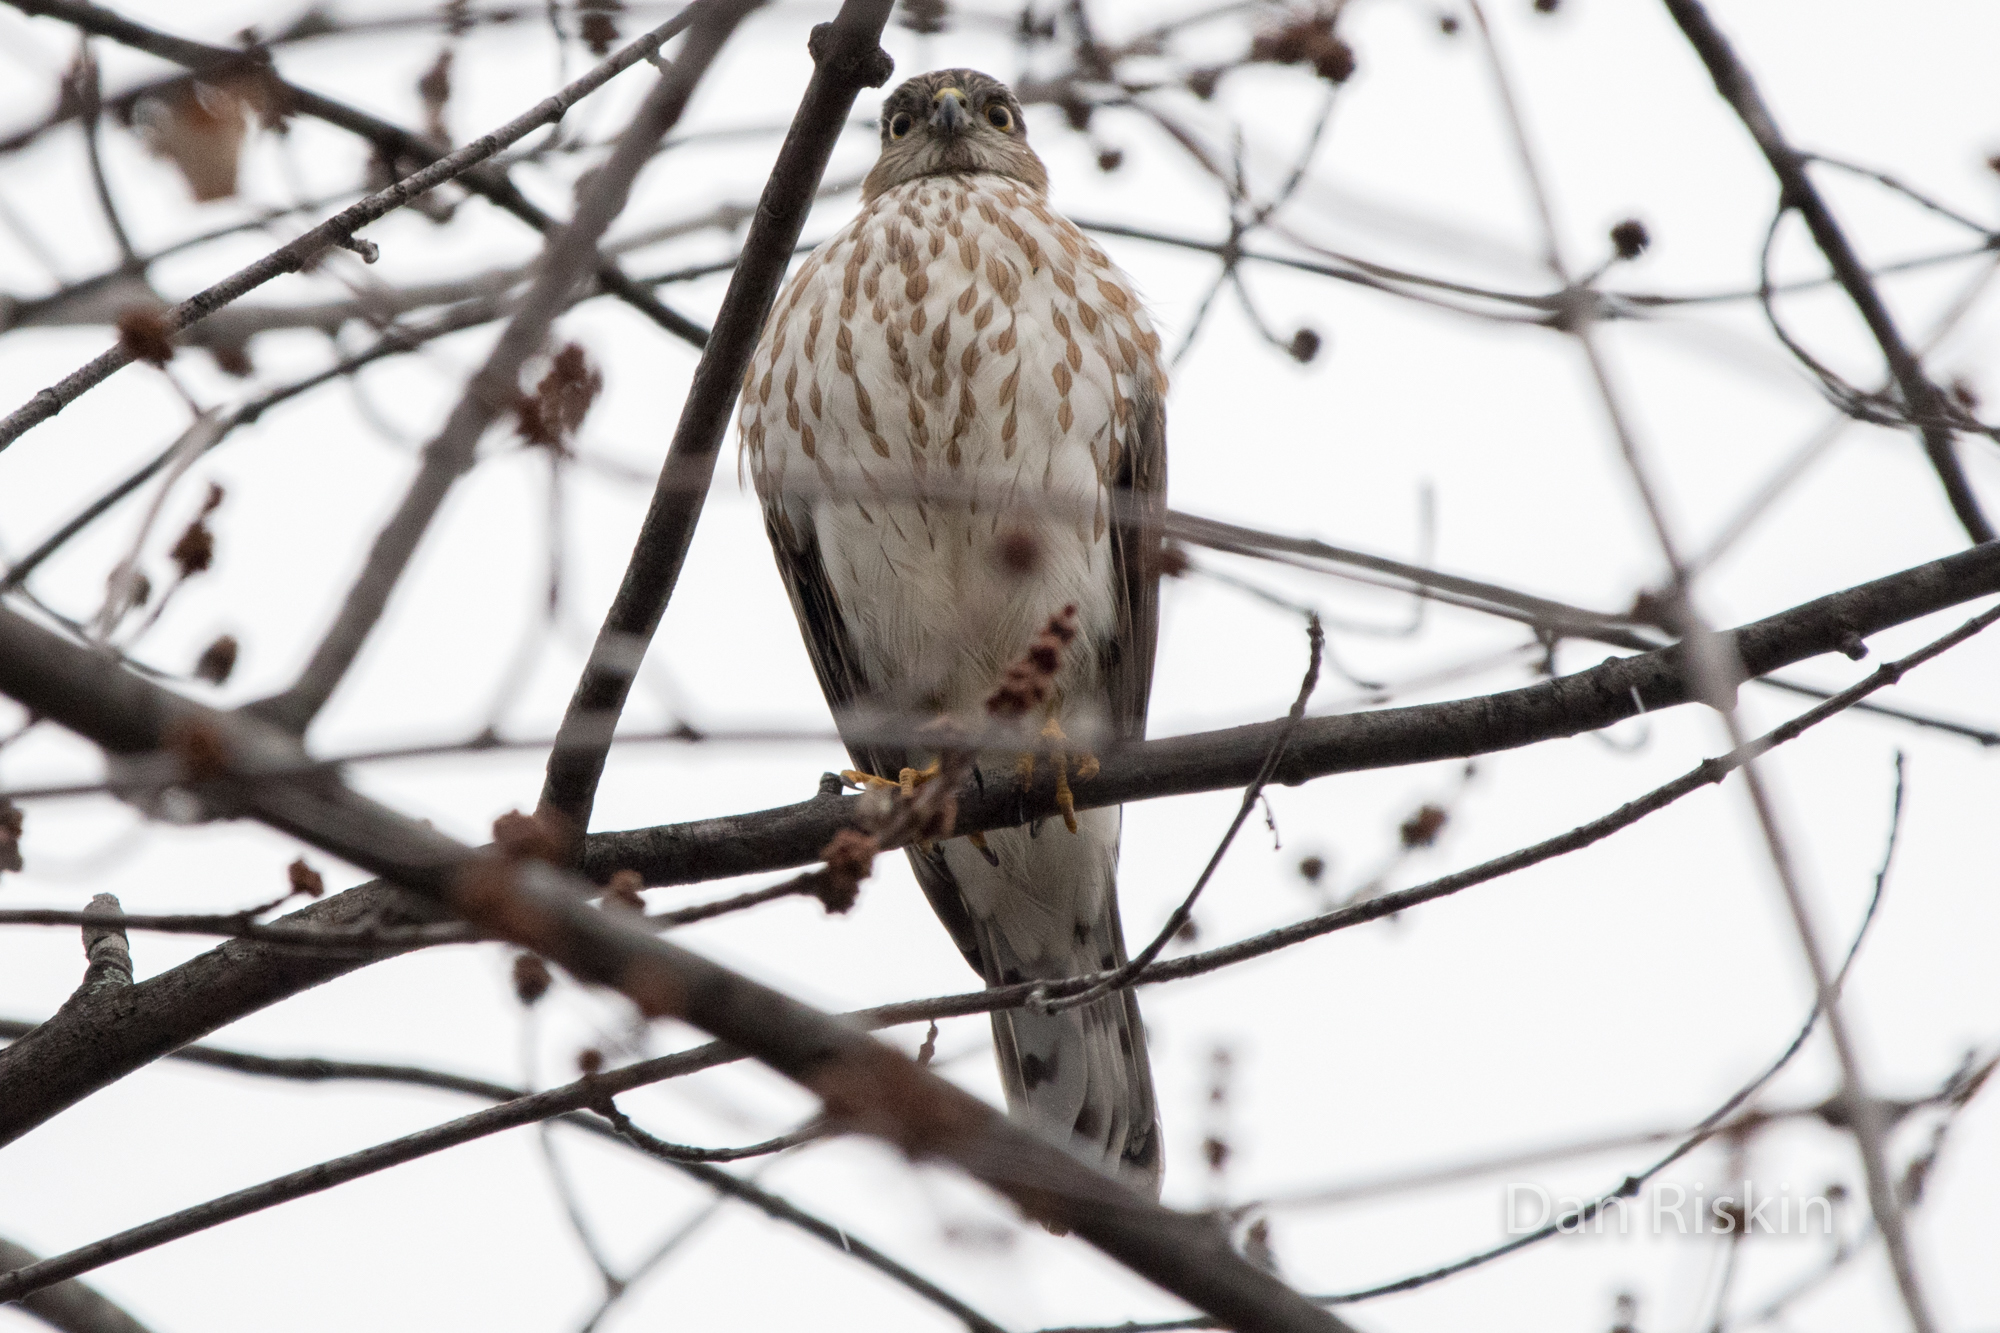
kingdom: Animalia
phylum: Chordata
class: Aves
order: Accipitriformes
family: Accipitridae
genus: Accipiter
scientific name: Accipiter striatus
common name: Sharp-shinned hawk
